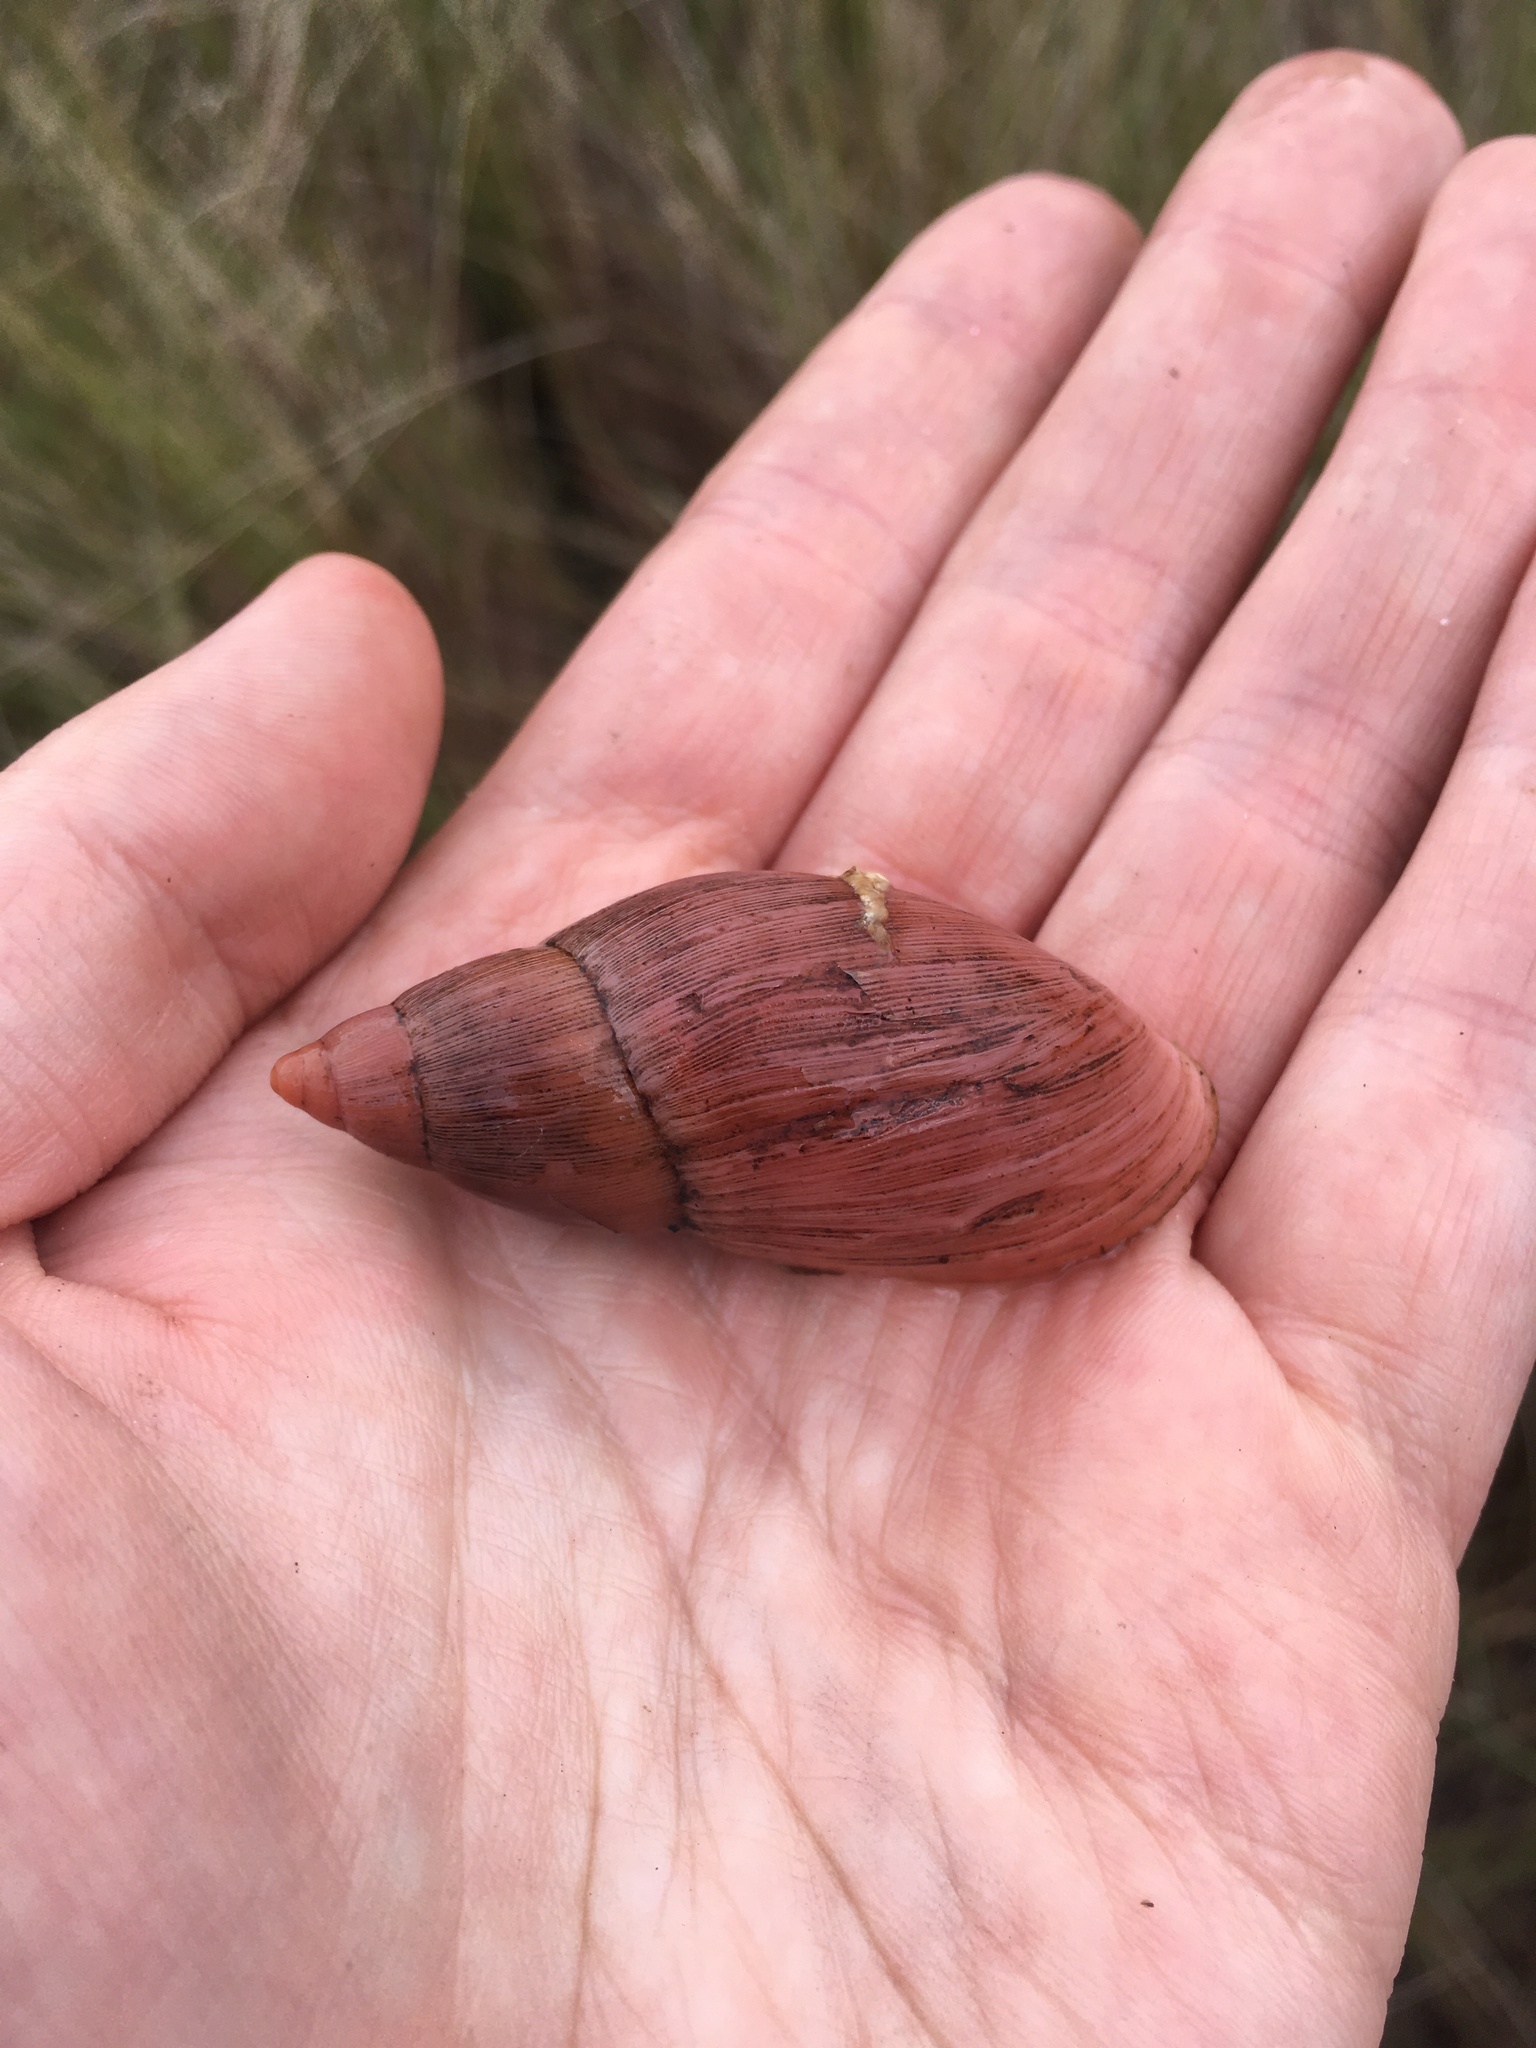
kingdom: Animalia
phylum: Mollusca
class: Gastropoda
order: Stylommatophora
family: Spiraxidae
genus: Euglandina
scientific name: Euglandina rosea
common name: Rosy wolfsnail
